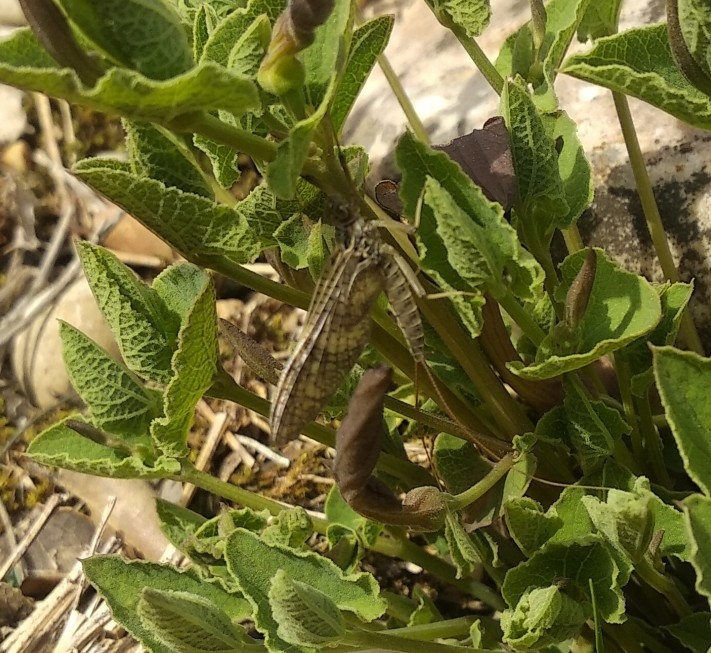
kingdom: Animalia
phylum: Arthropoda
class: Insecta
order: Ephemeroptera
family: Heptageniidae
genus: Ecdyonurus
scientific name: Ecdyonurus codinai
